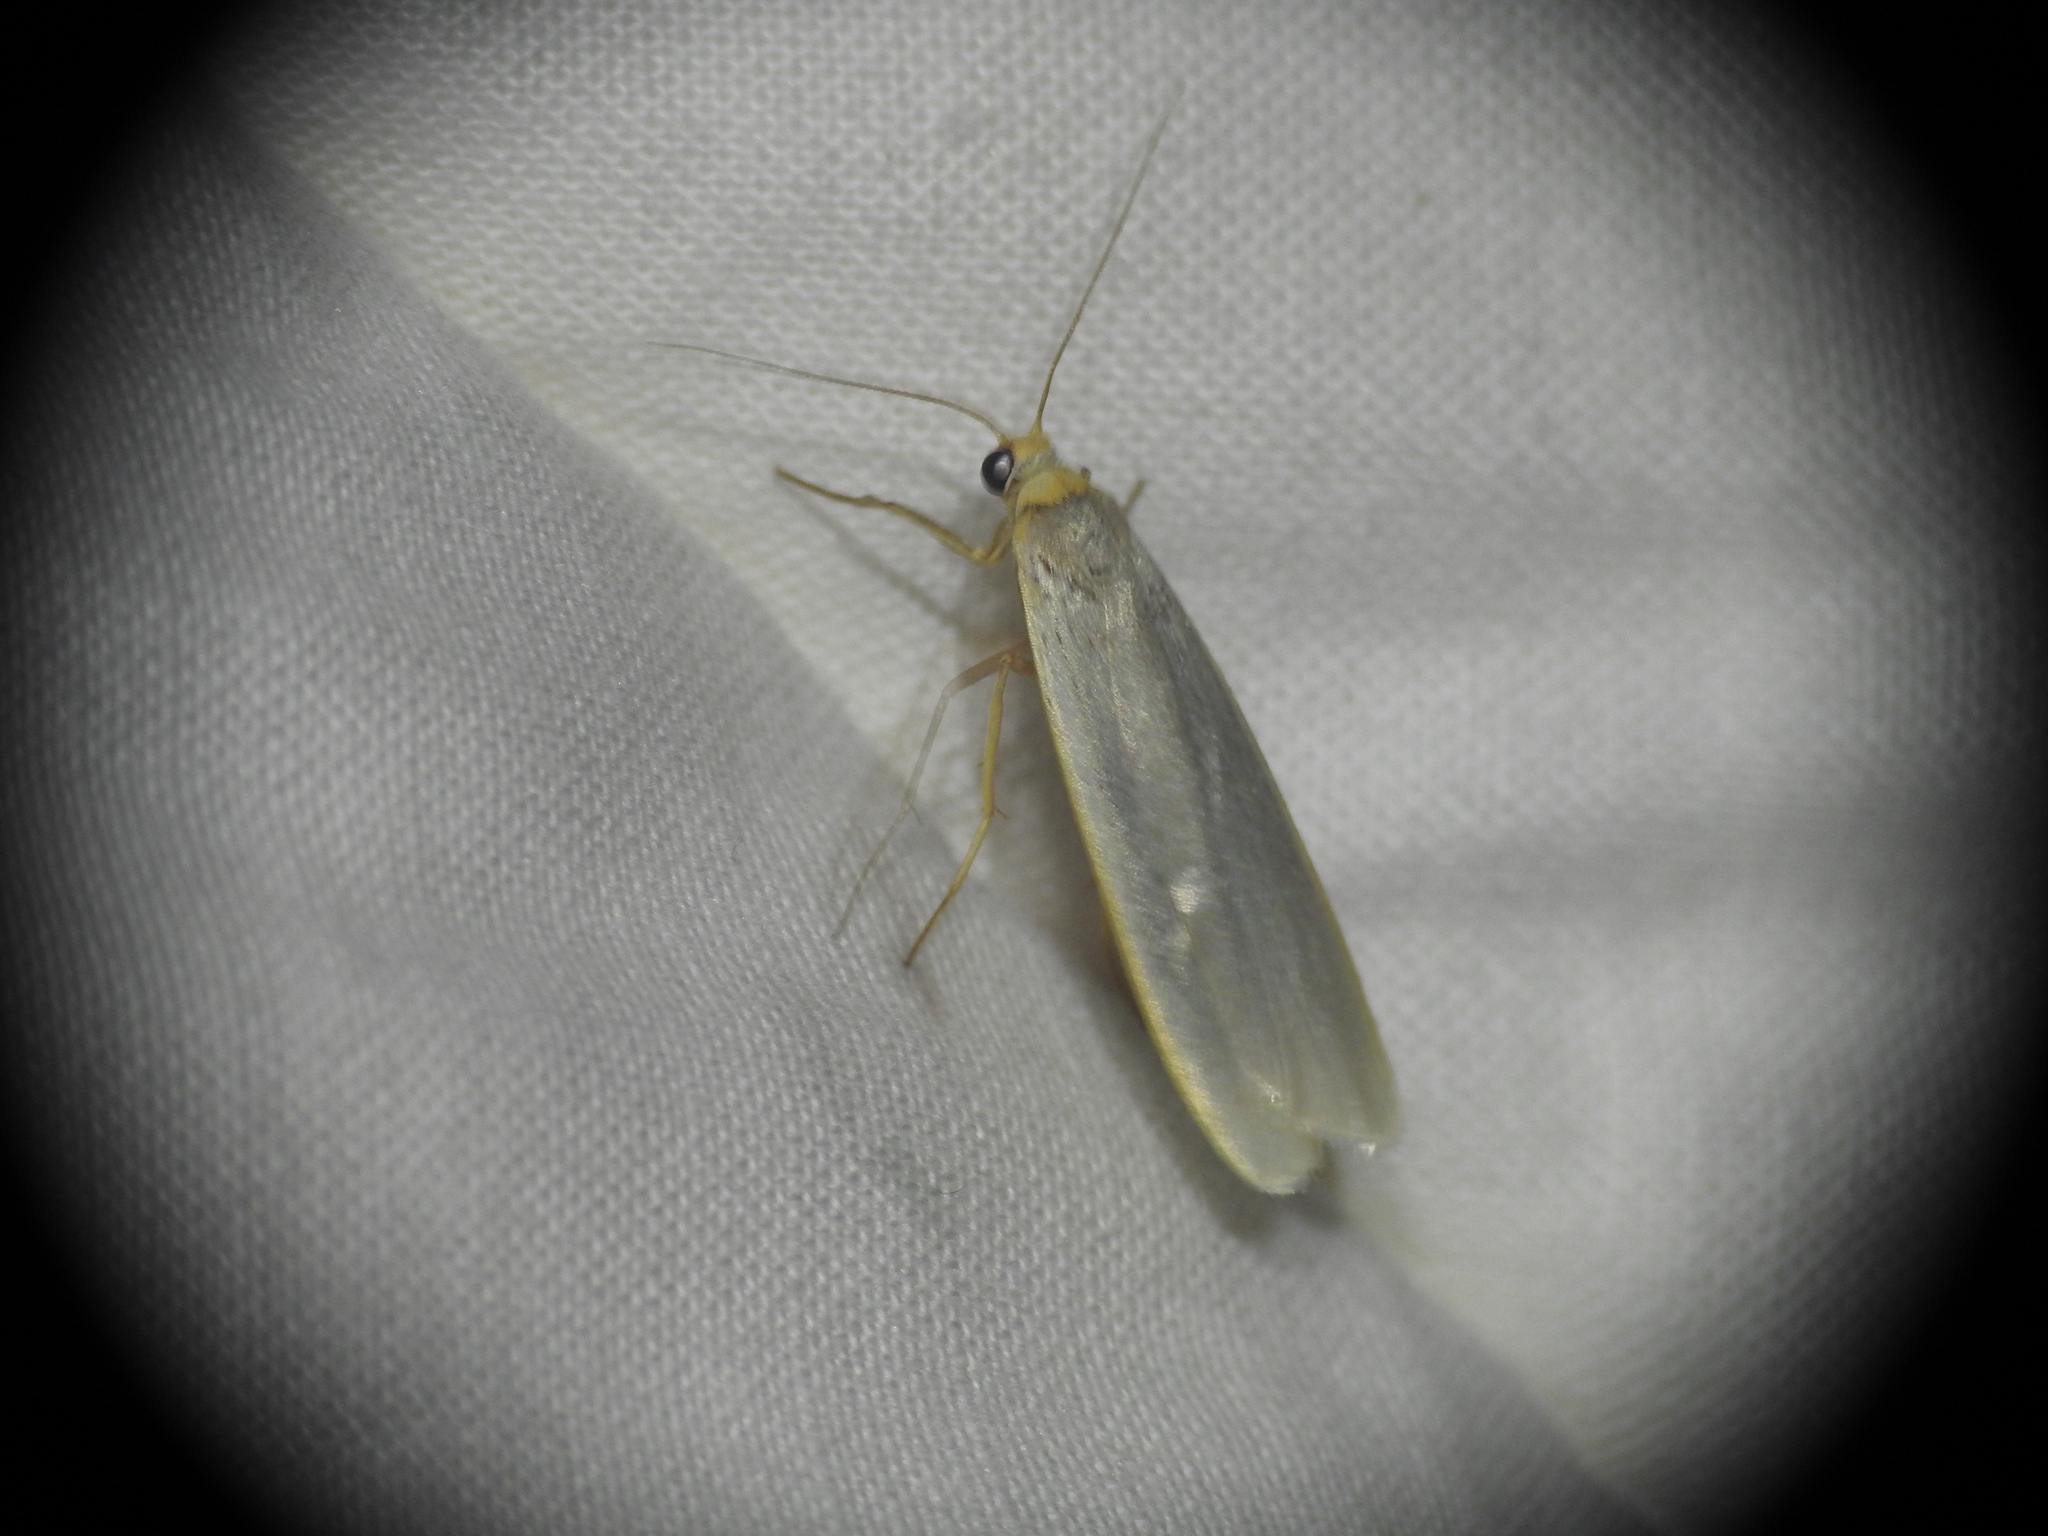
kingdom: Animalia
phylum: Arthropoda
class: Insecta
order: Lepidoptera
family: Erebidae
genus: Eilema
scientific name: Eilema caniola
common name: Hoary footman
